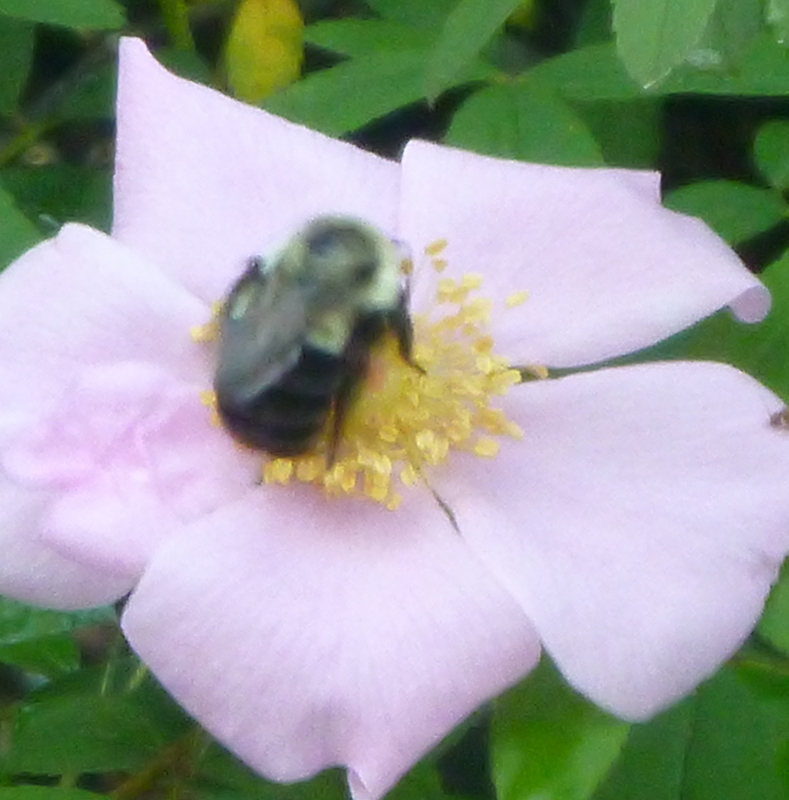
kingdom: Animalia
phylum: Arthropoda
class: Insecta
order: Hymenoptera
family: Apidae
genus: Bombus
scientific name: Bombus impatiens
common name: Common eastern bumble bee
